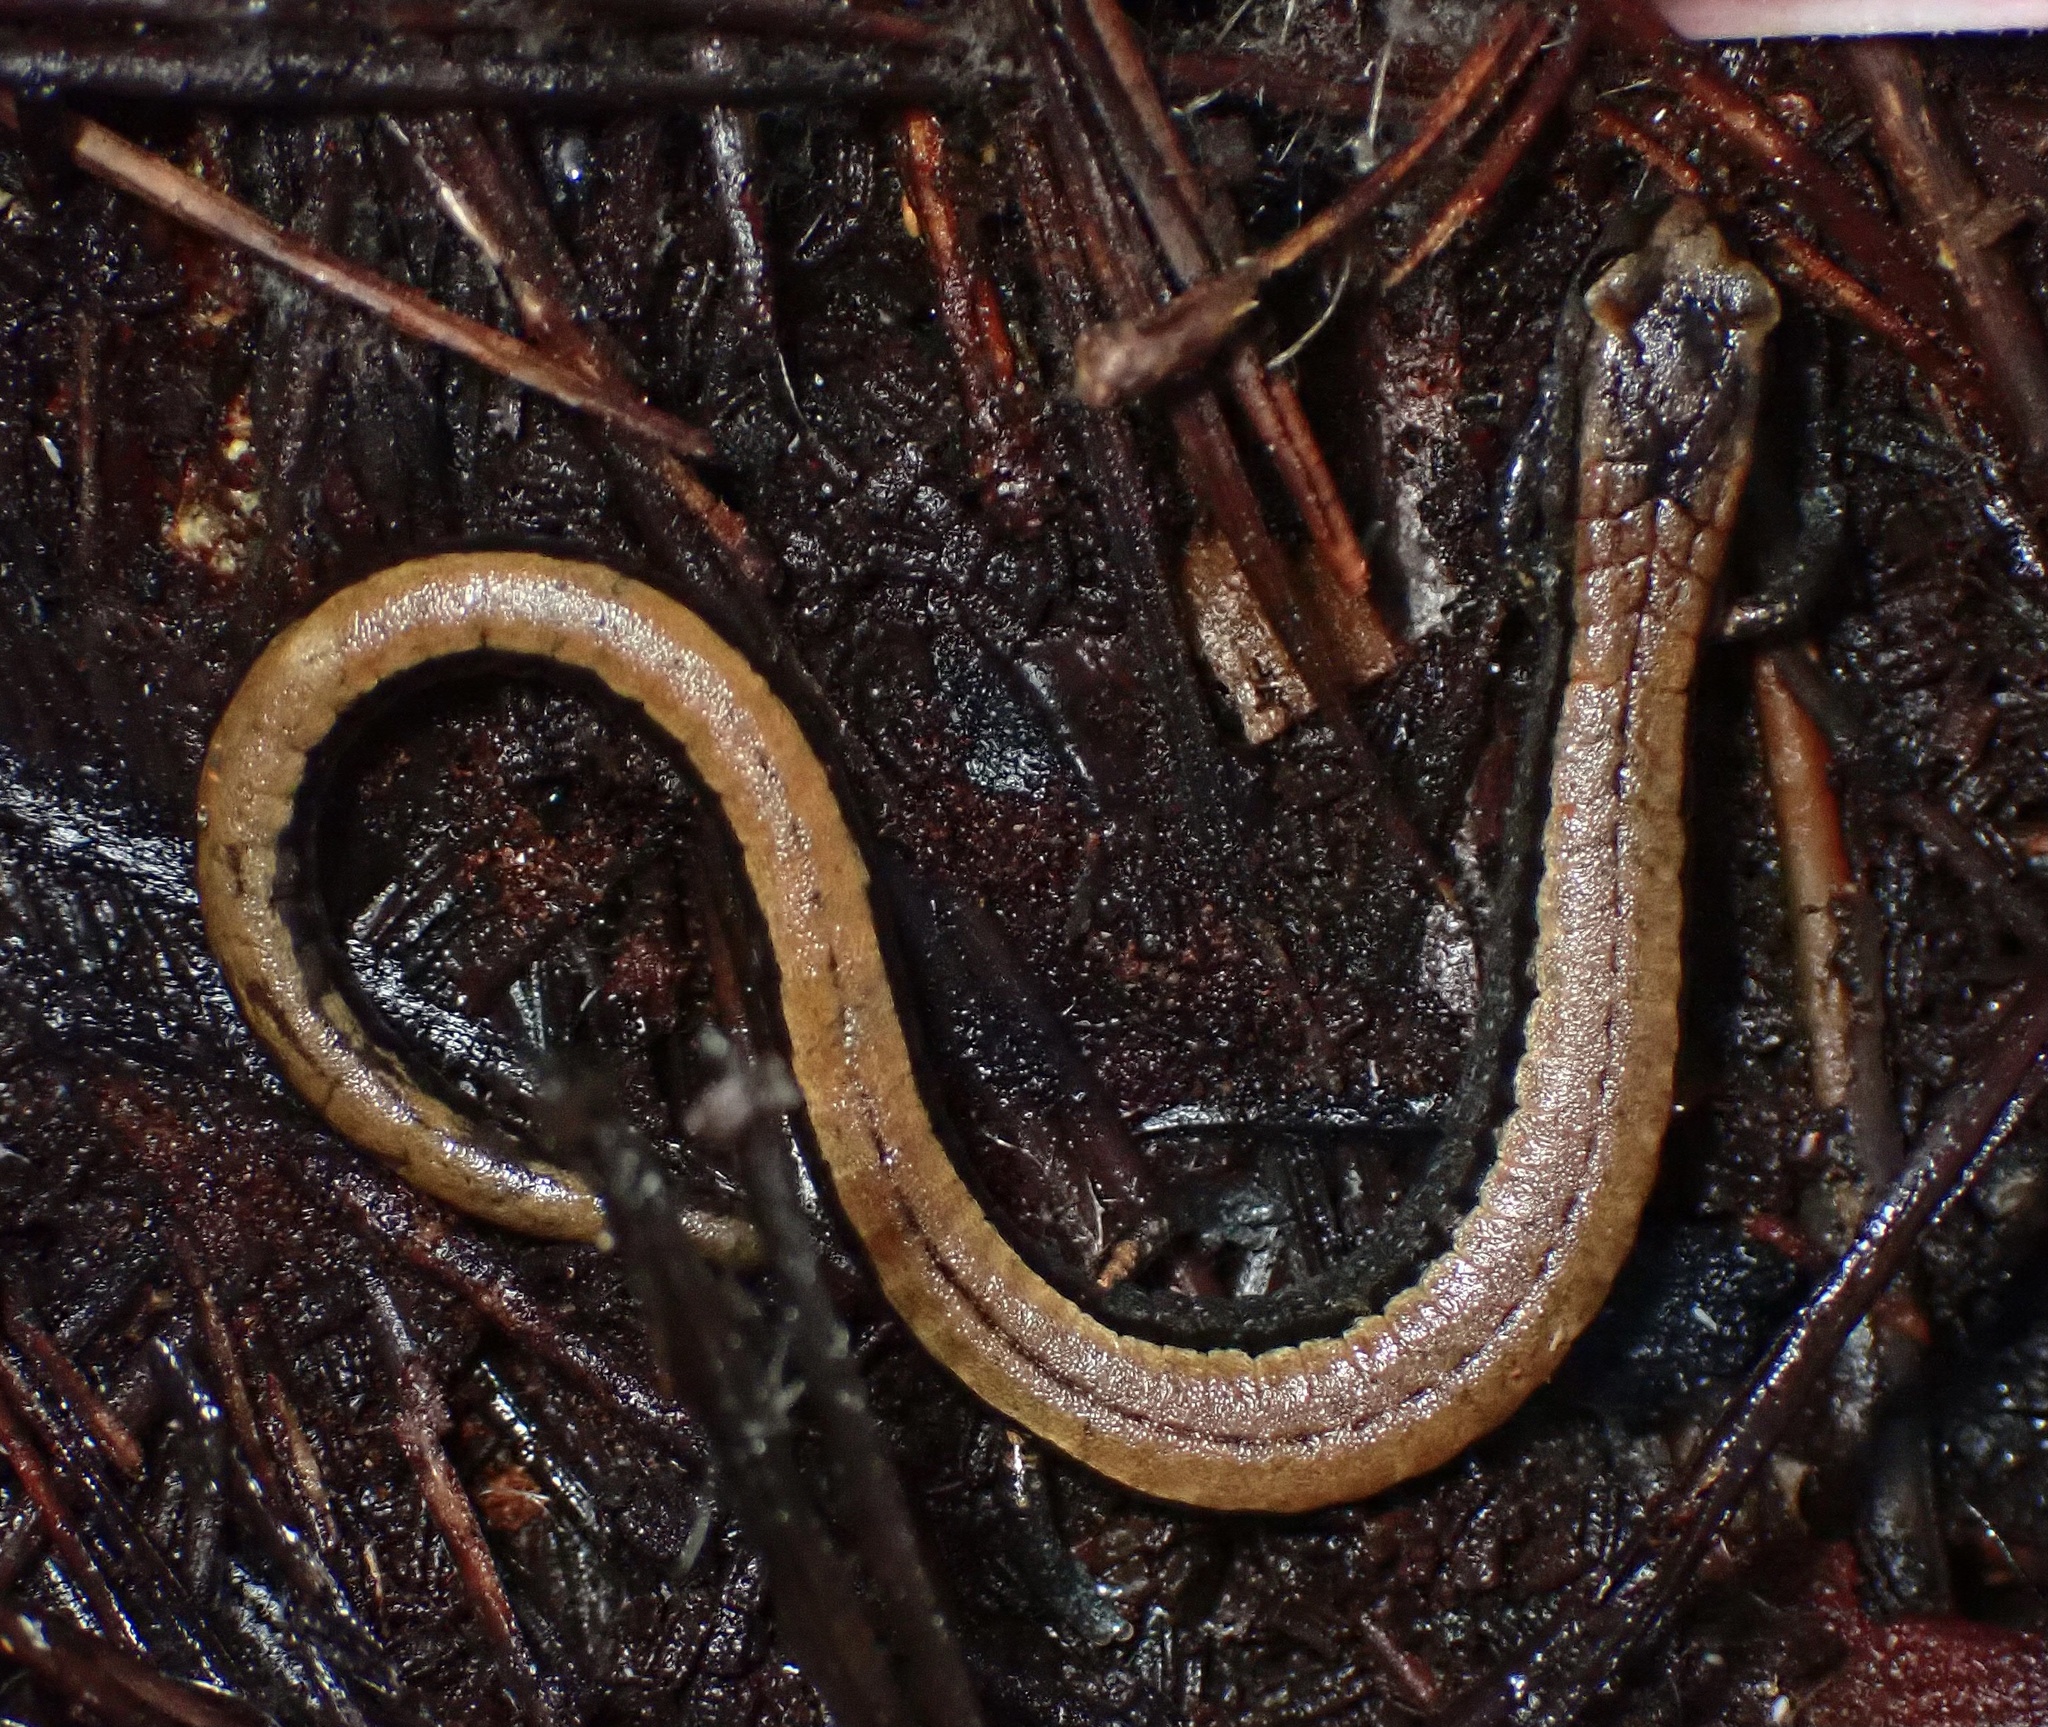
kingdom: Animalia
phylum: Chordata
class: Amphibia
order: Caudata
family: Plethodontidae
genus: Batrachoseps
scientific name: Batrachoseps attenuatus
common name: California slender salamander
